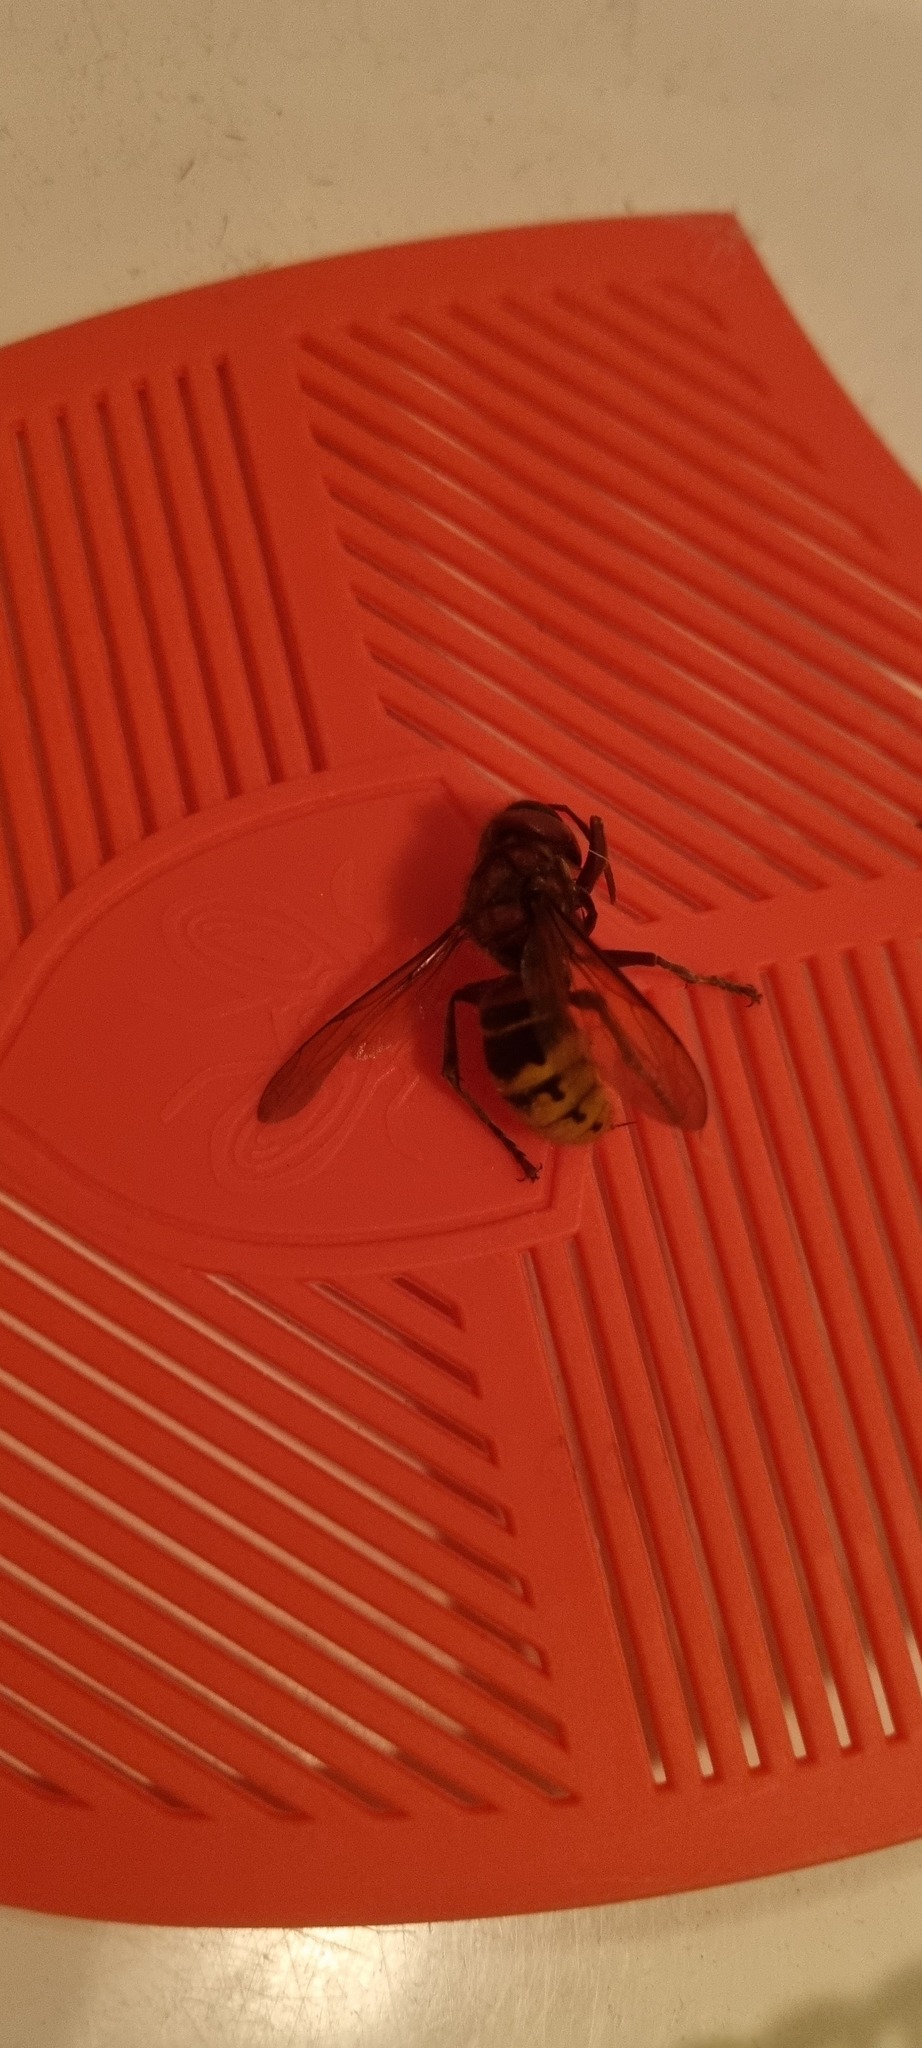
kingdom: Animalia
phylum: Arthropoda
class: Insecta
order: Hymenoptera
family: Vespidae
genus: Vespa
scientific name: Vespa crabro
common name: Hornet
